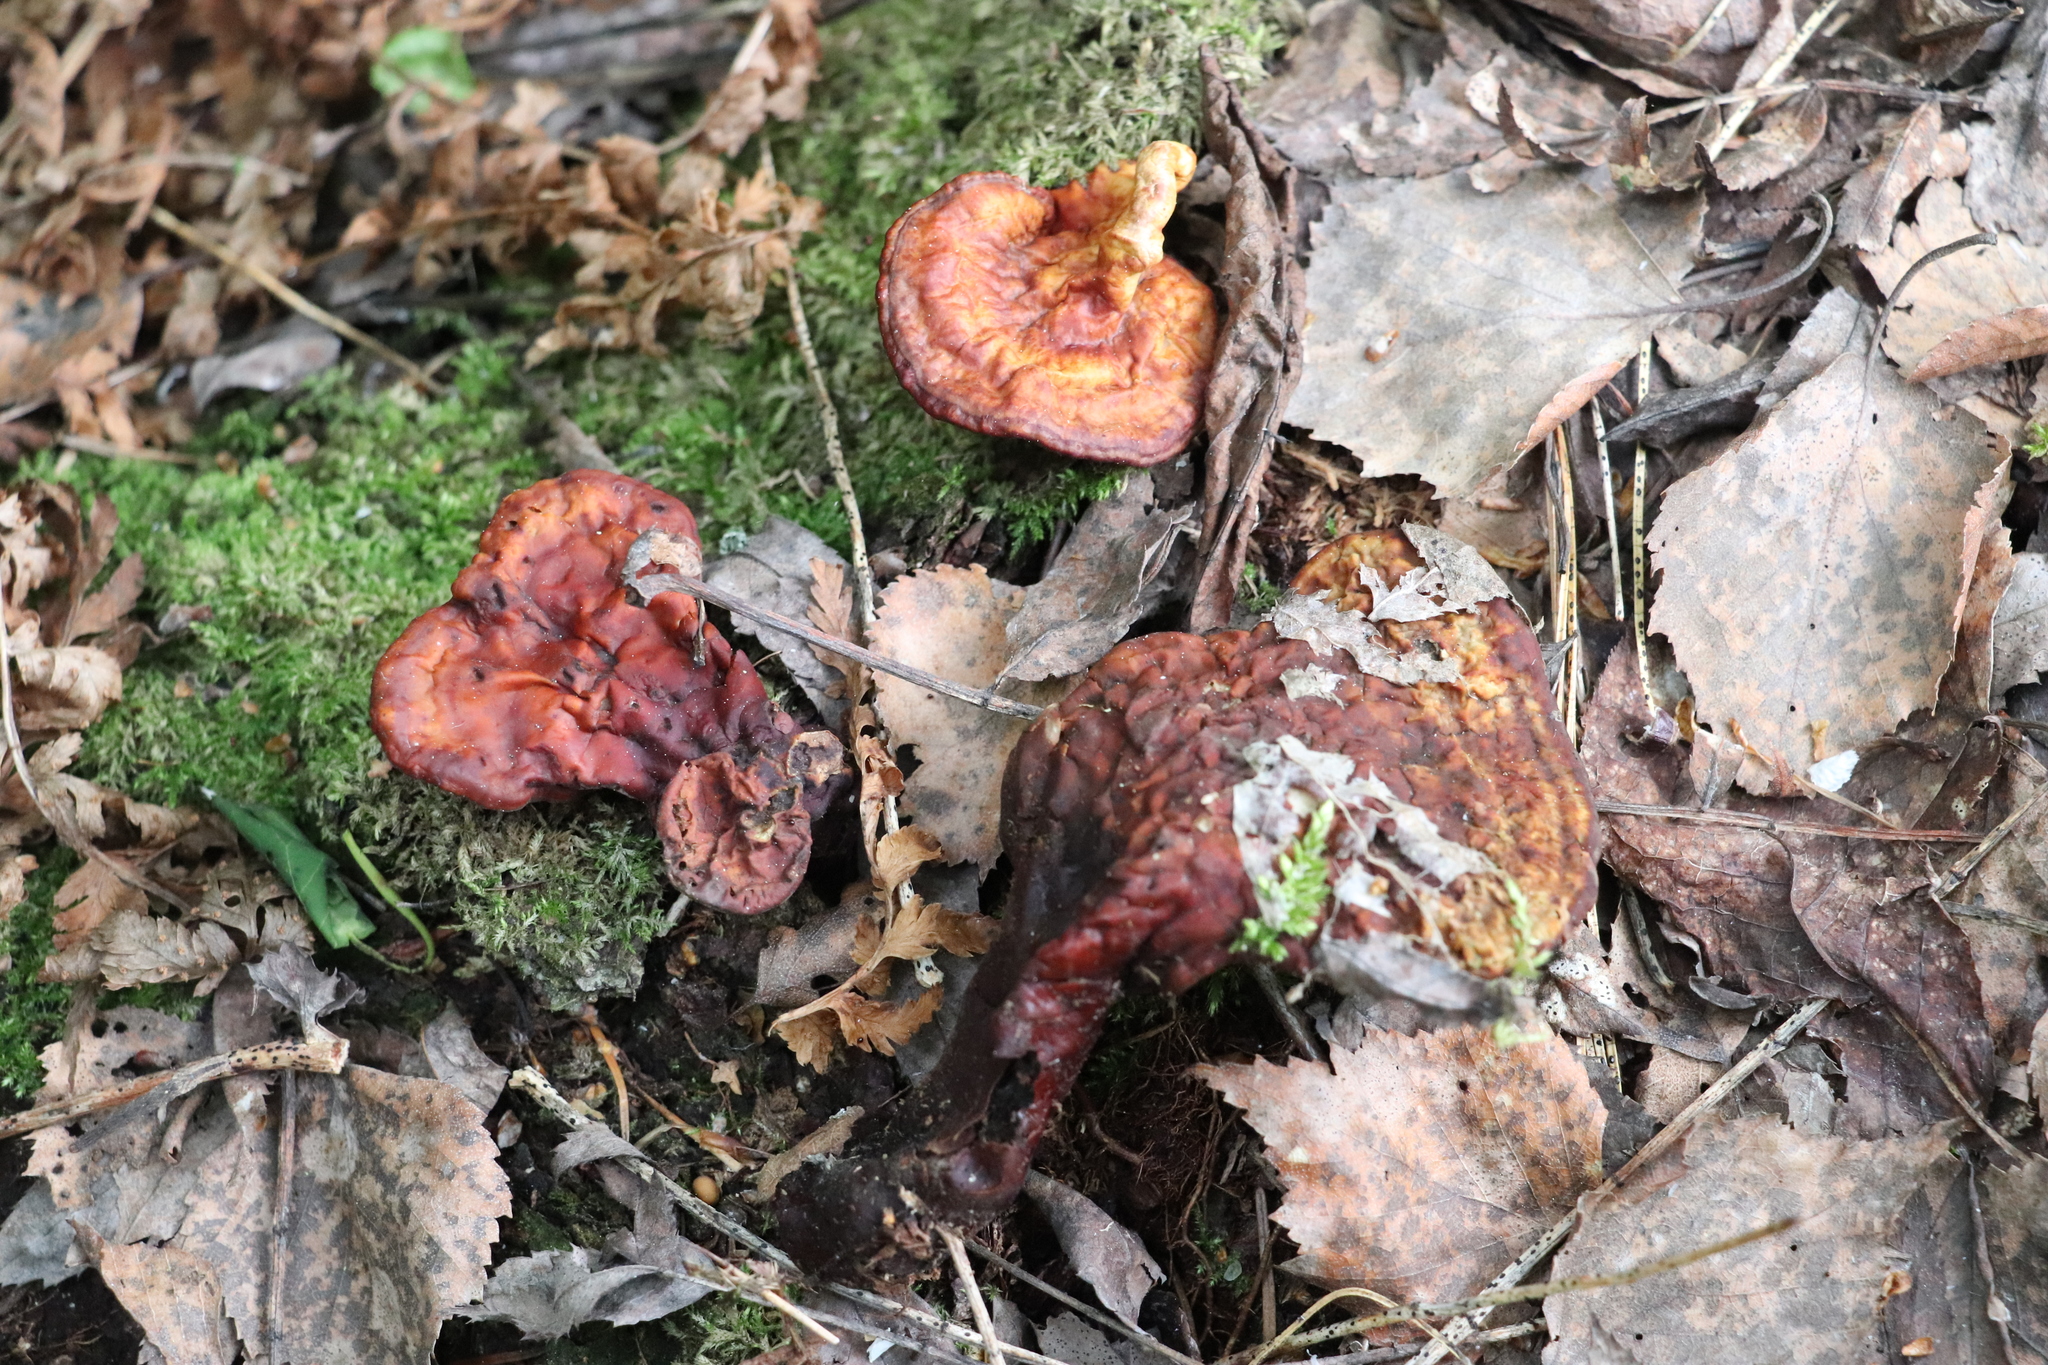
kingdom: Fungi
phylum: Basidiomycota
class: Agaricomycetes
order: Polyporales
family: Polyporaceae
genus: Ganoderma
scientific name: Ganoderma lucidum
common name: Lacquered bracket
